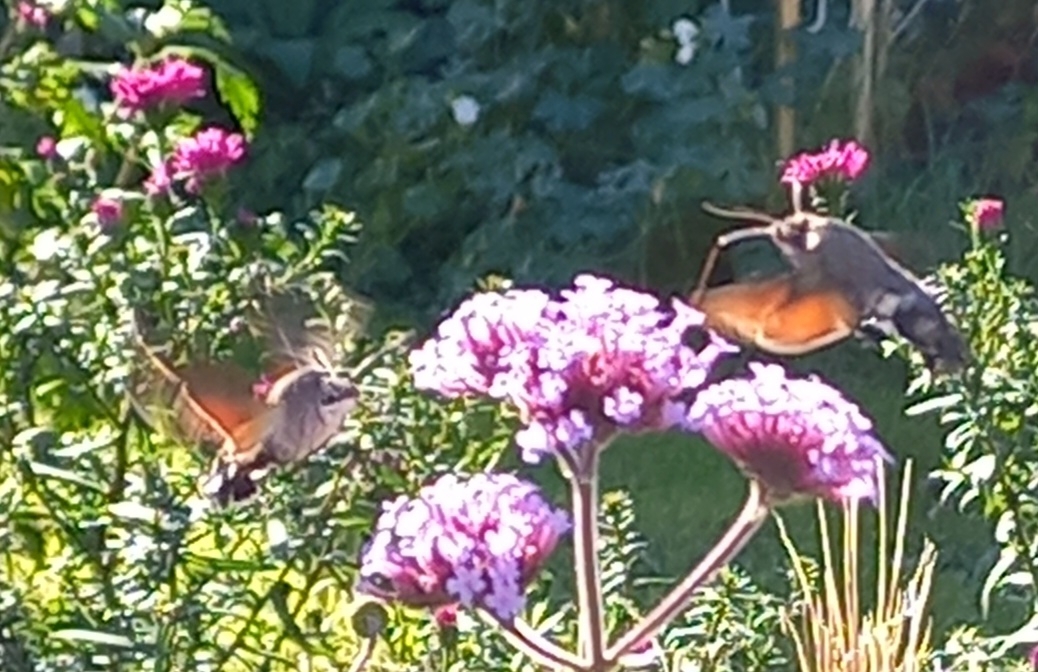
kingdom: Animalia
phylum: Arthropoda
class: Insecta
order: Lepidoptera
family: Sphingidae
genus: Macroglossum
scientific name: Macroglossum stellatarum
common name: Humming-bird hawk-moth
